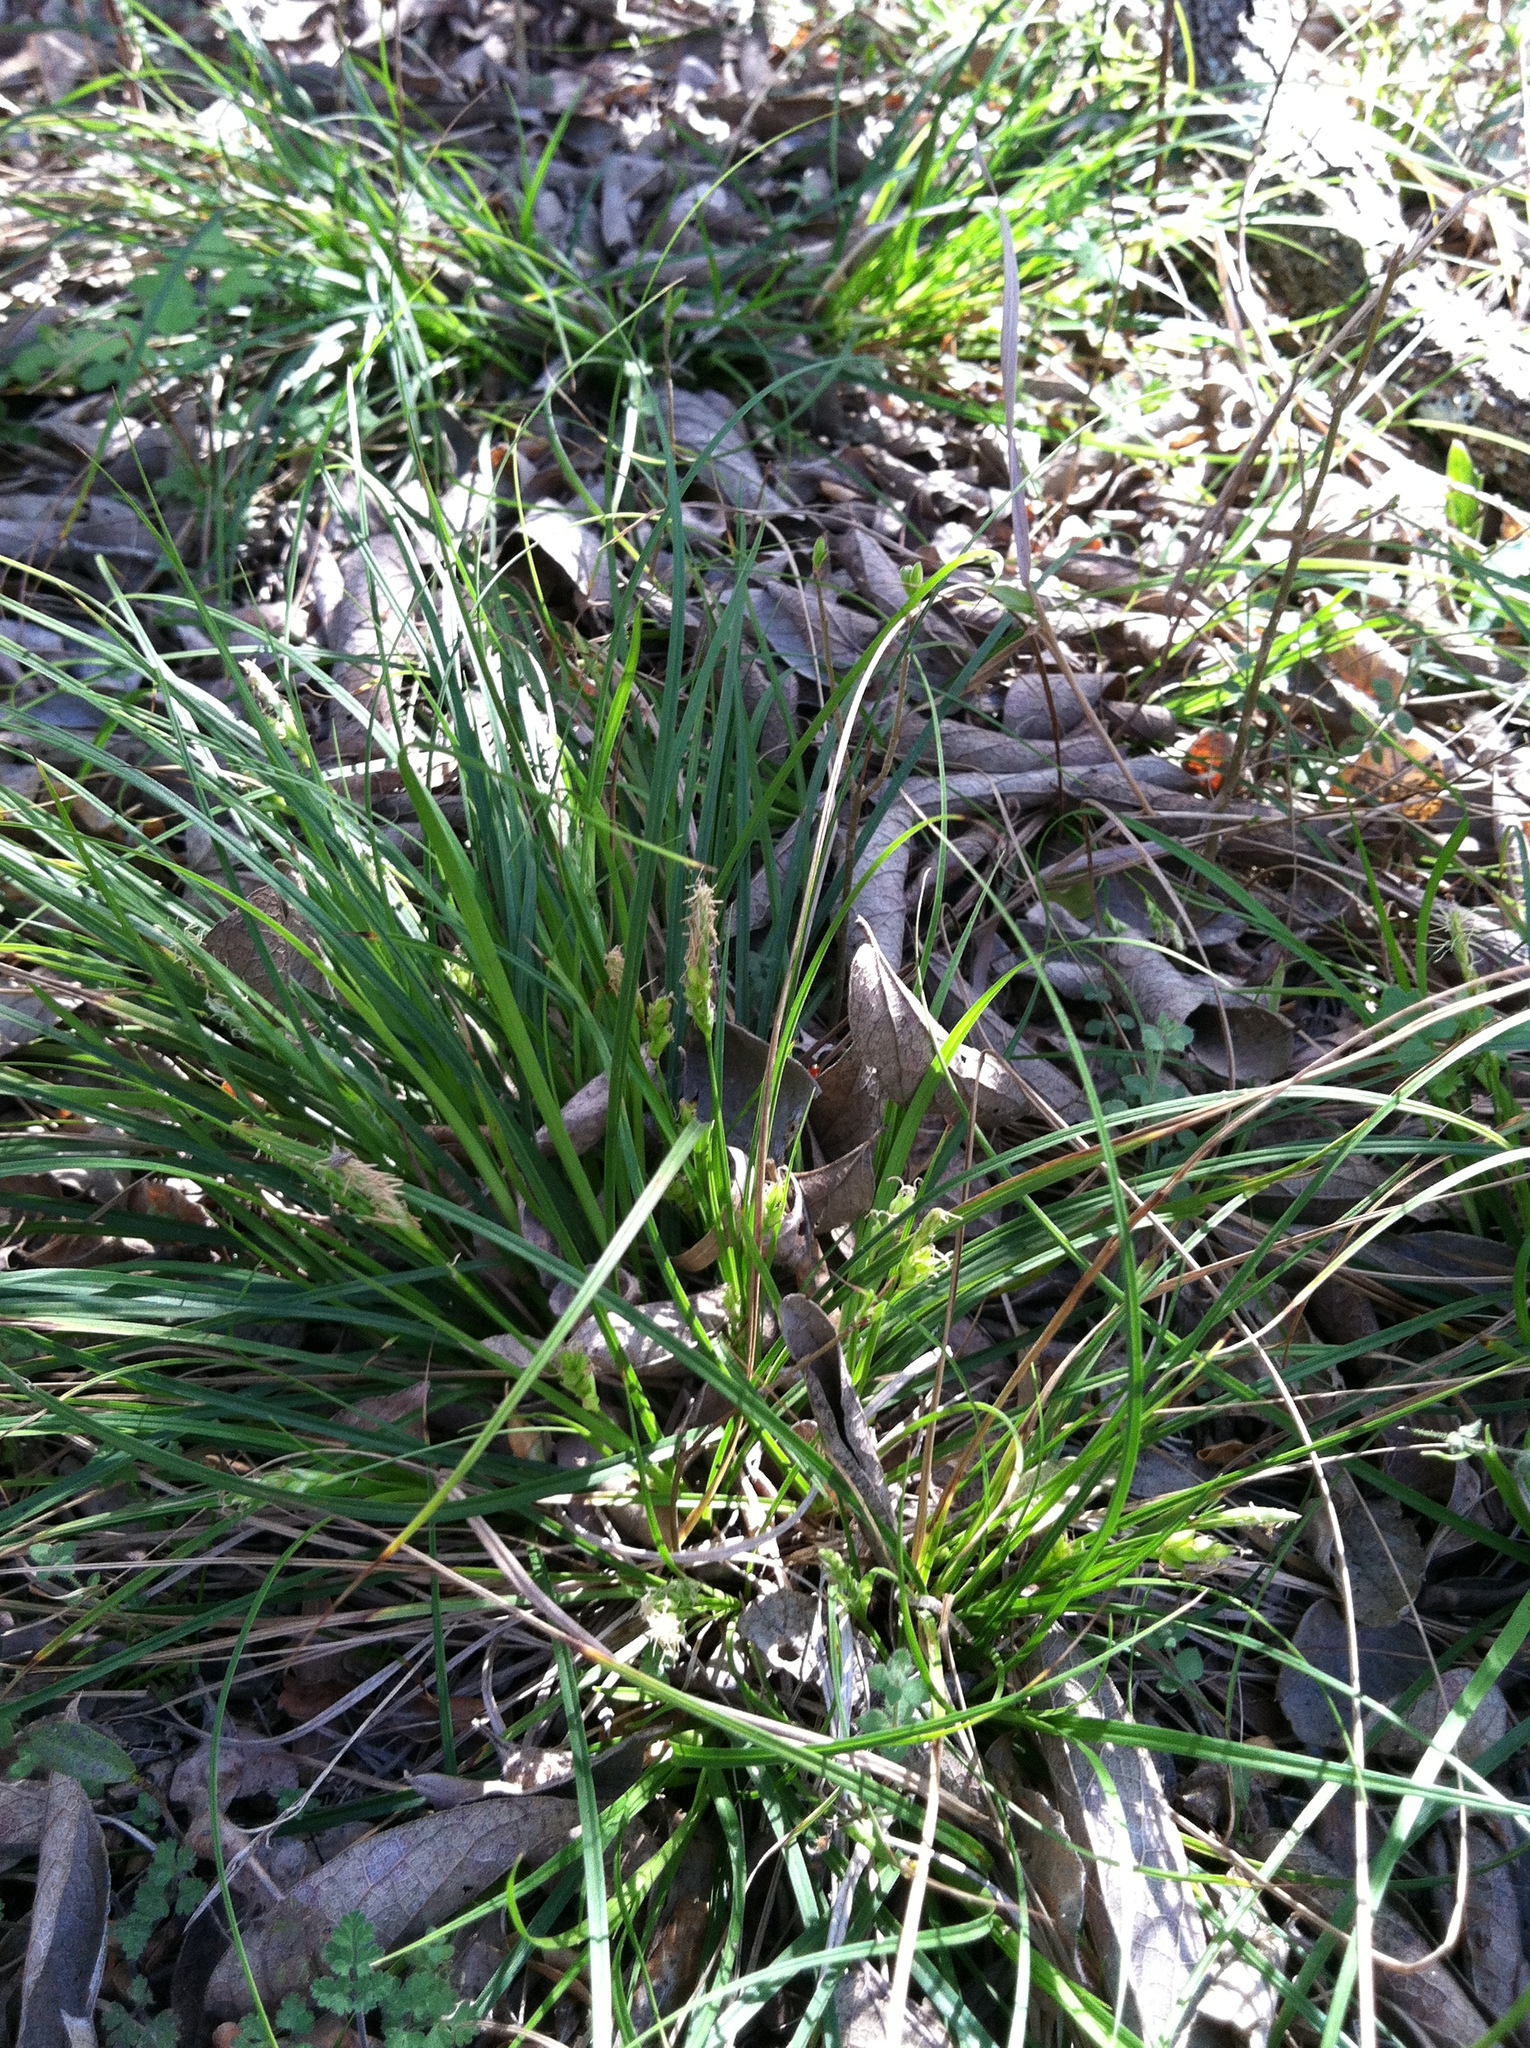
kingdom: Plantae
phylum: Tracheophyta
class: Liliopsida
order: Poales
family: Cyperaceae
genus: Carex
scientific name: Carex planostachys
